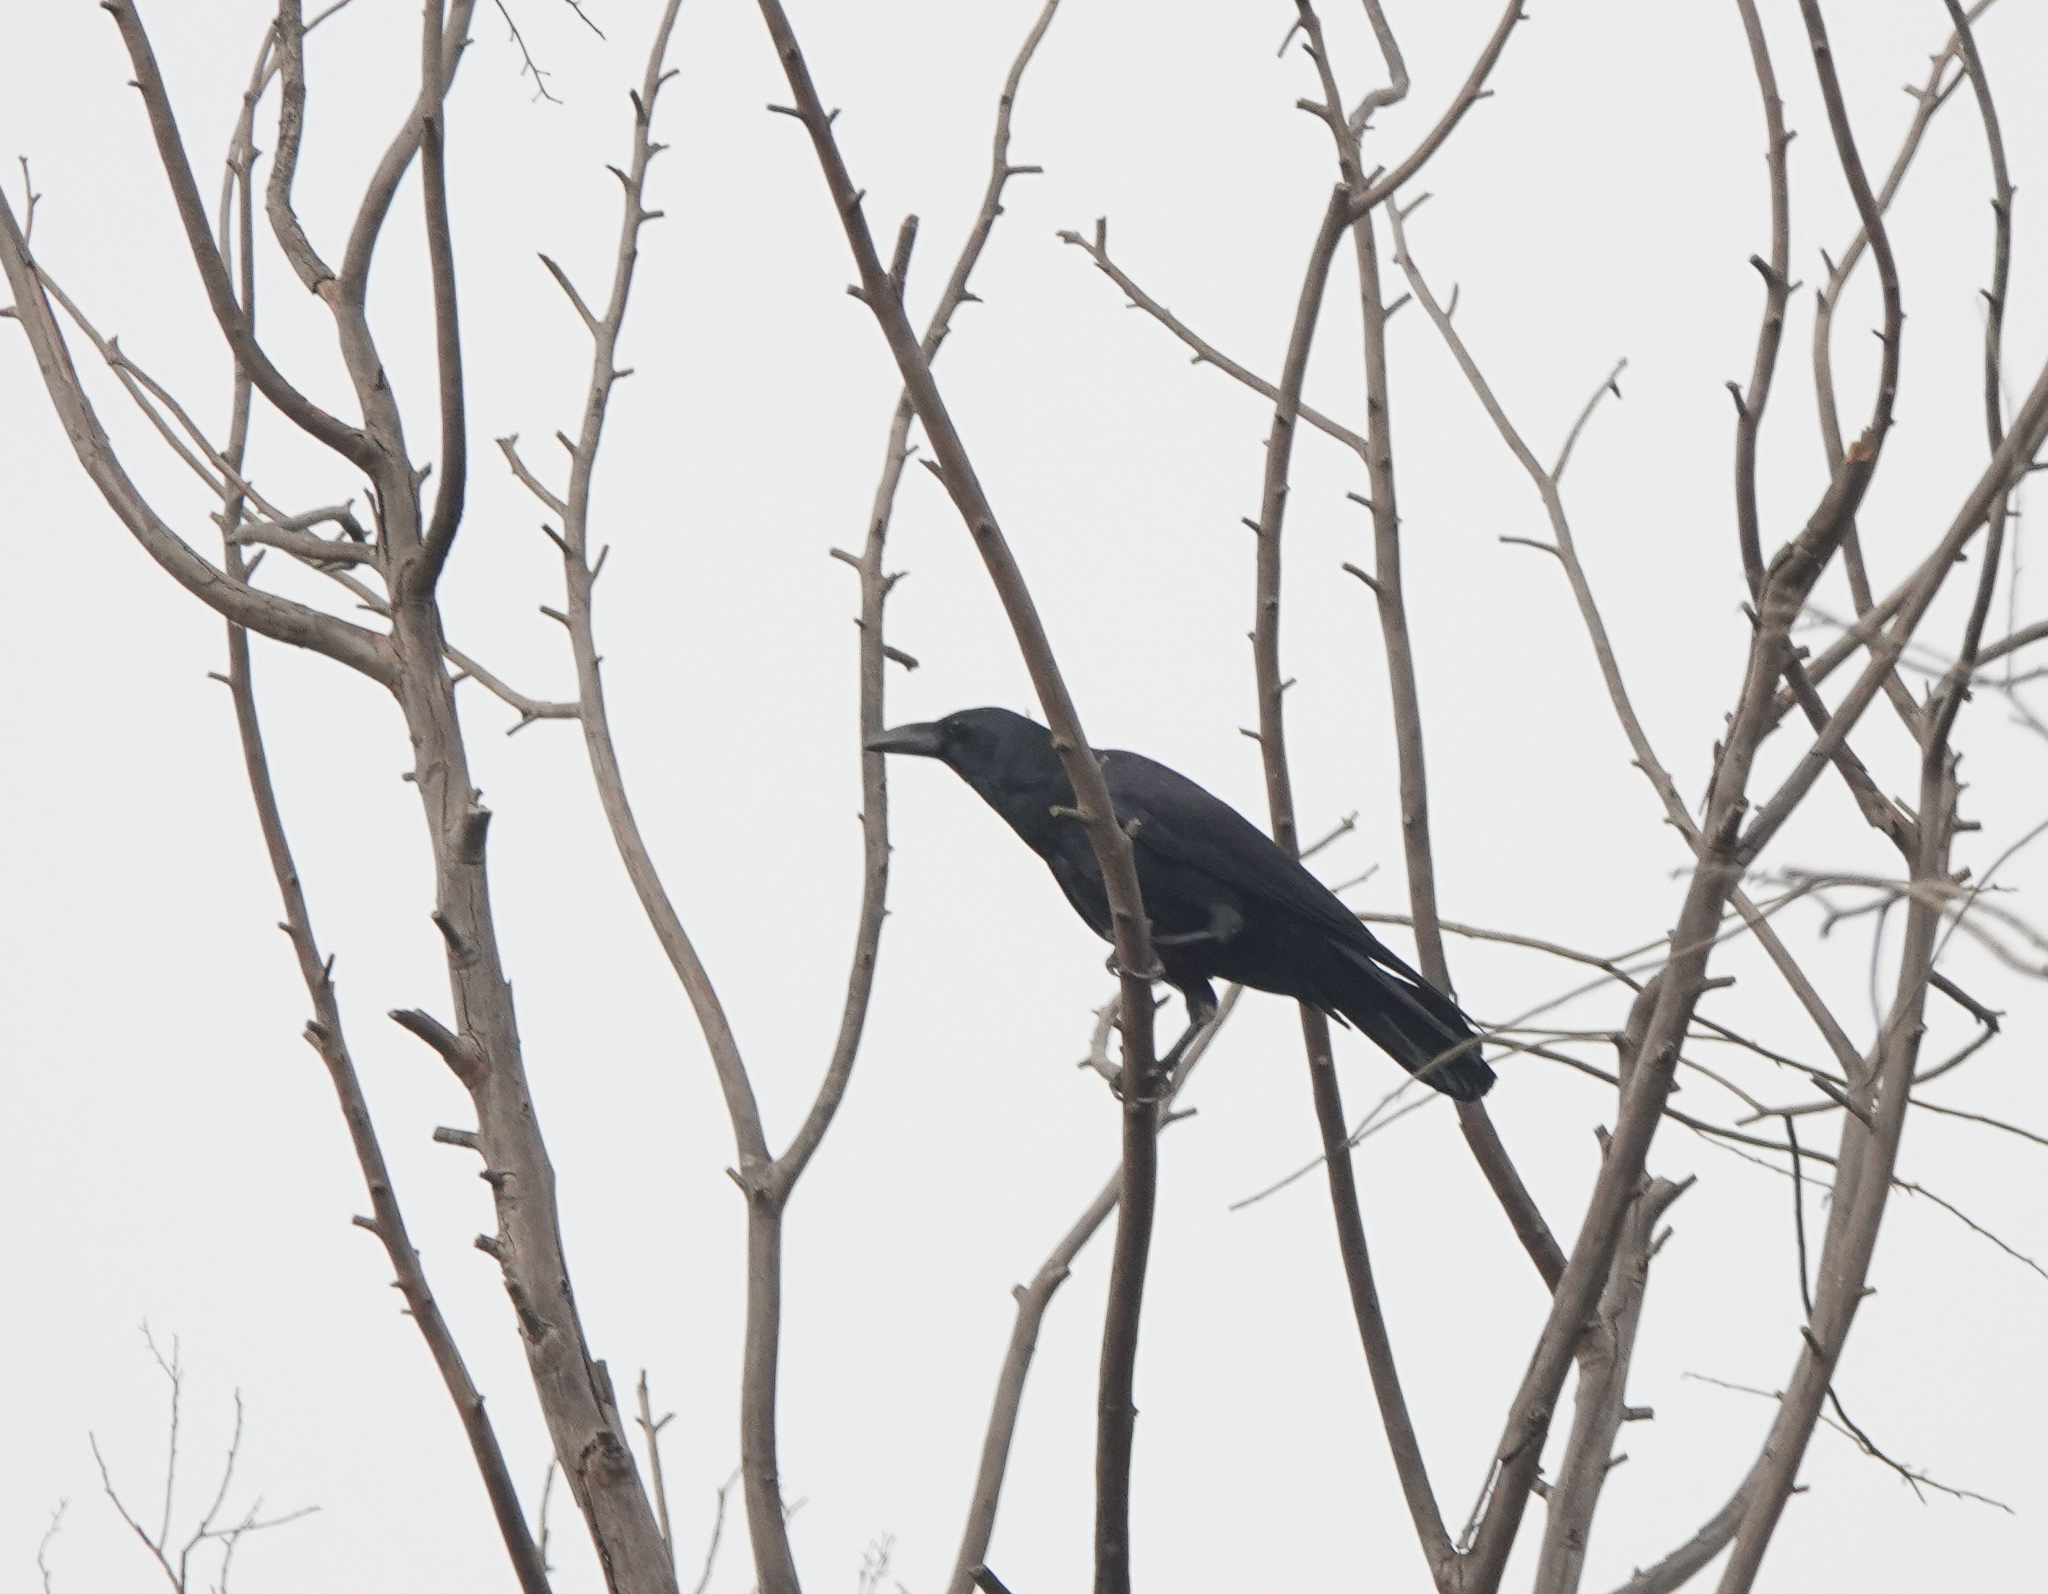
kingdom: Animalia
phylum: Chordata
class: Aves
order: Passeriformes
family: Corvidae
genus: Corvus
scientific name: Corvus macrorhynchos
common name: Large-billed crow
